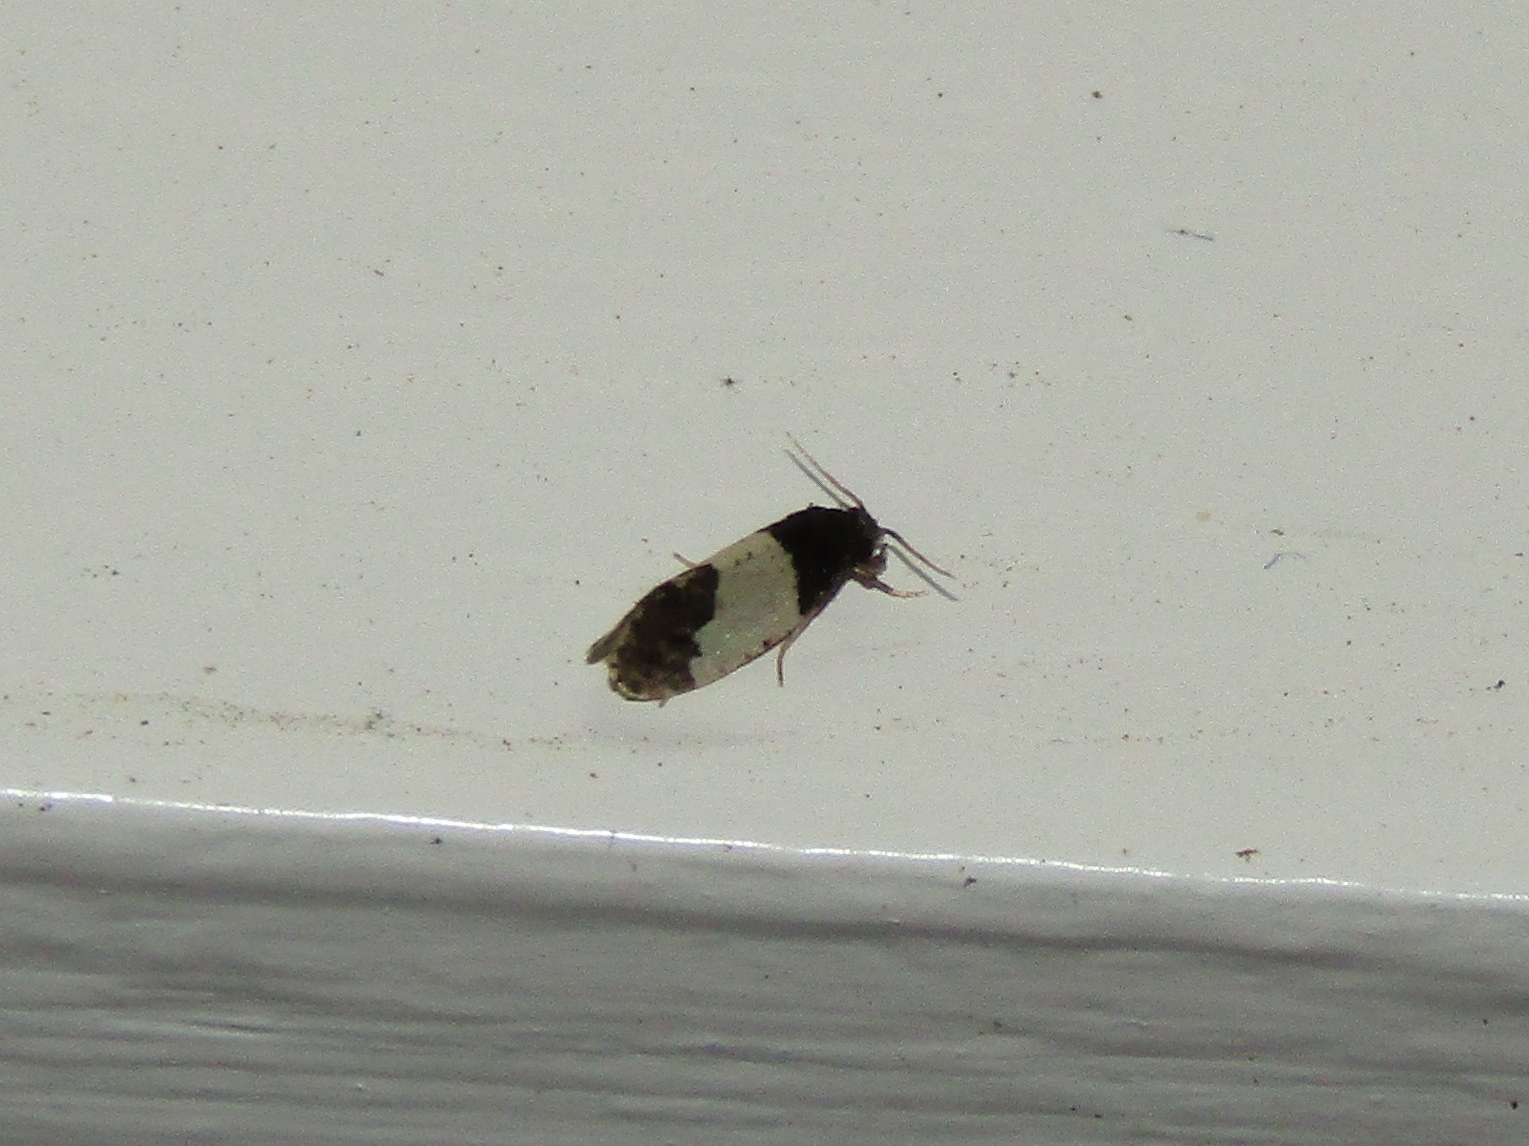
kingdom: Animalia
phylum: Arthropoda
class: Insecta
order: Lepidoptera
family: Psychidae
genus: Kearfottia
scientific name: Kearfottia albifasciella
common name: White-patched kearfottia
